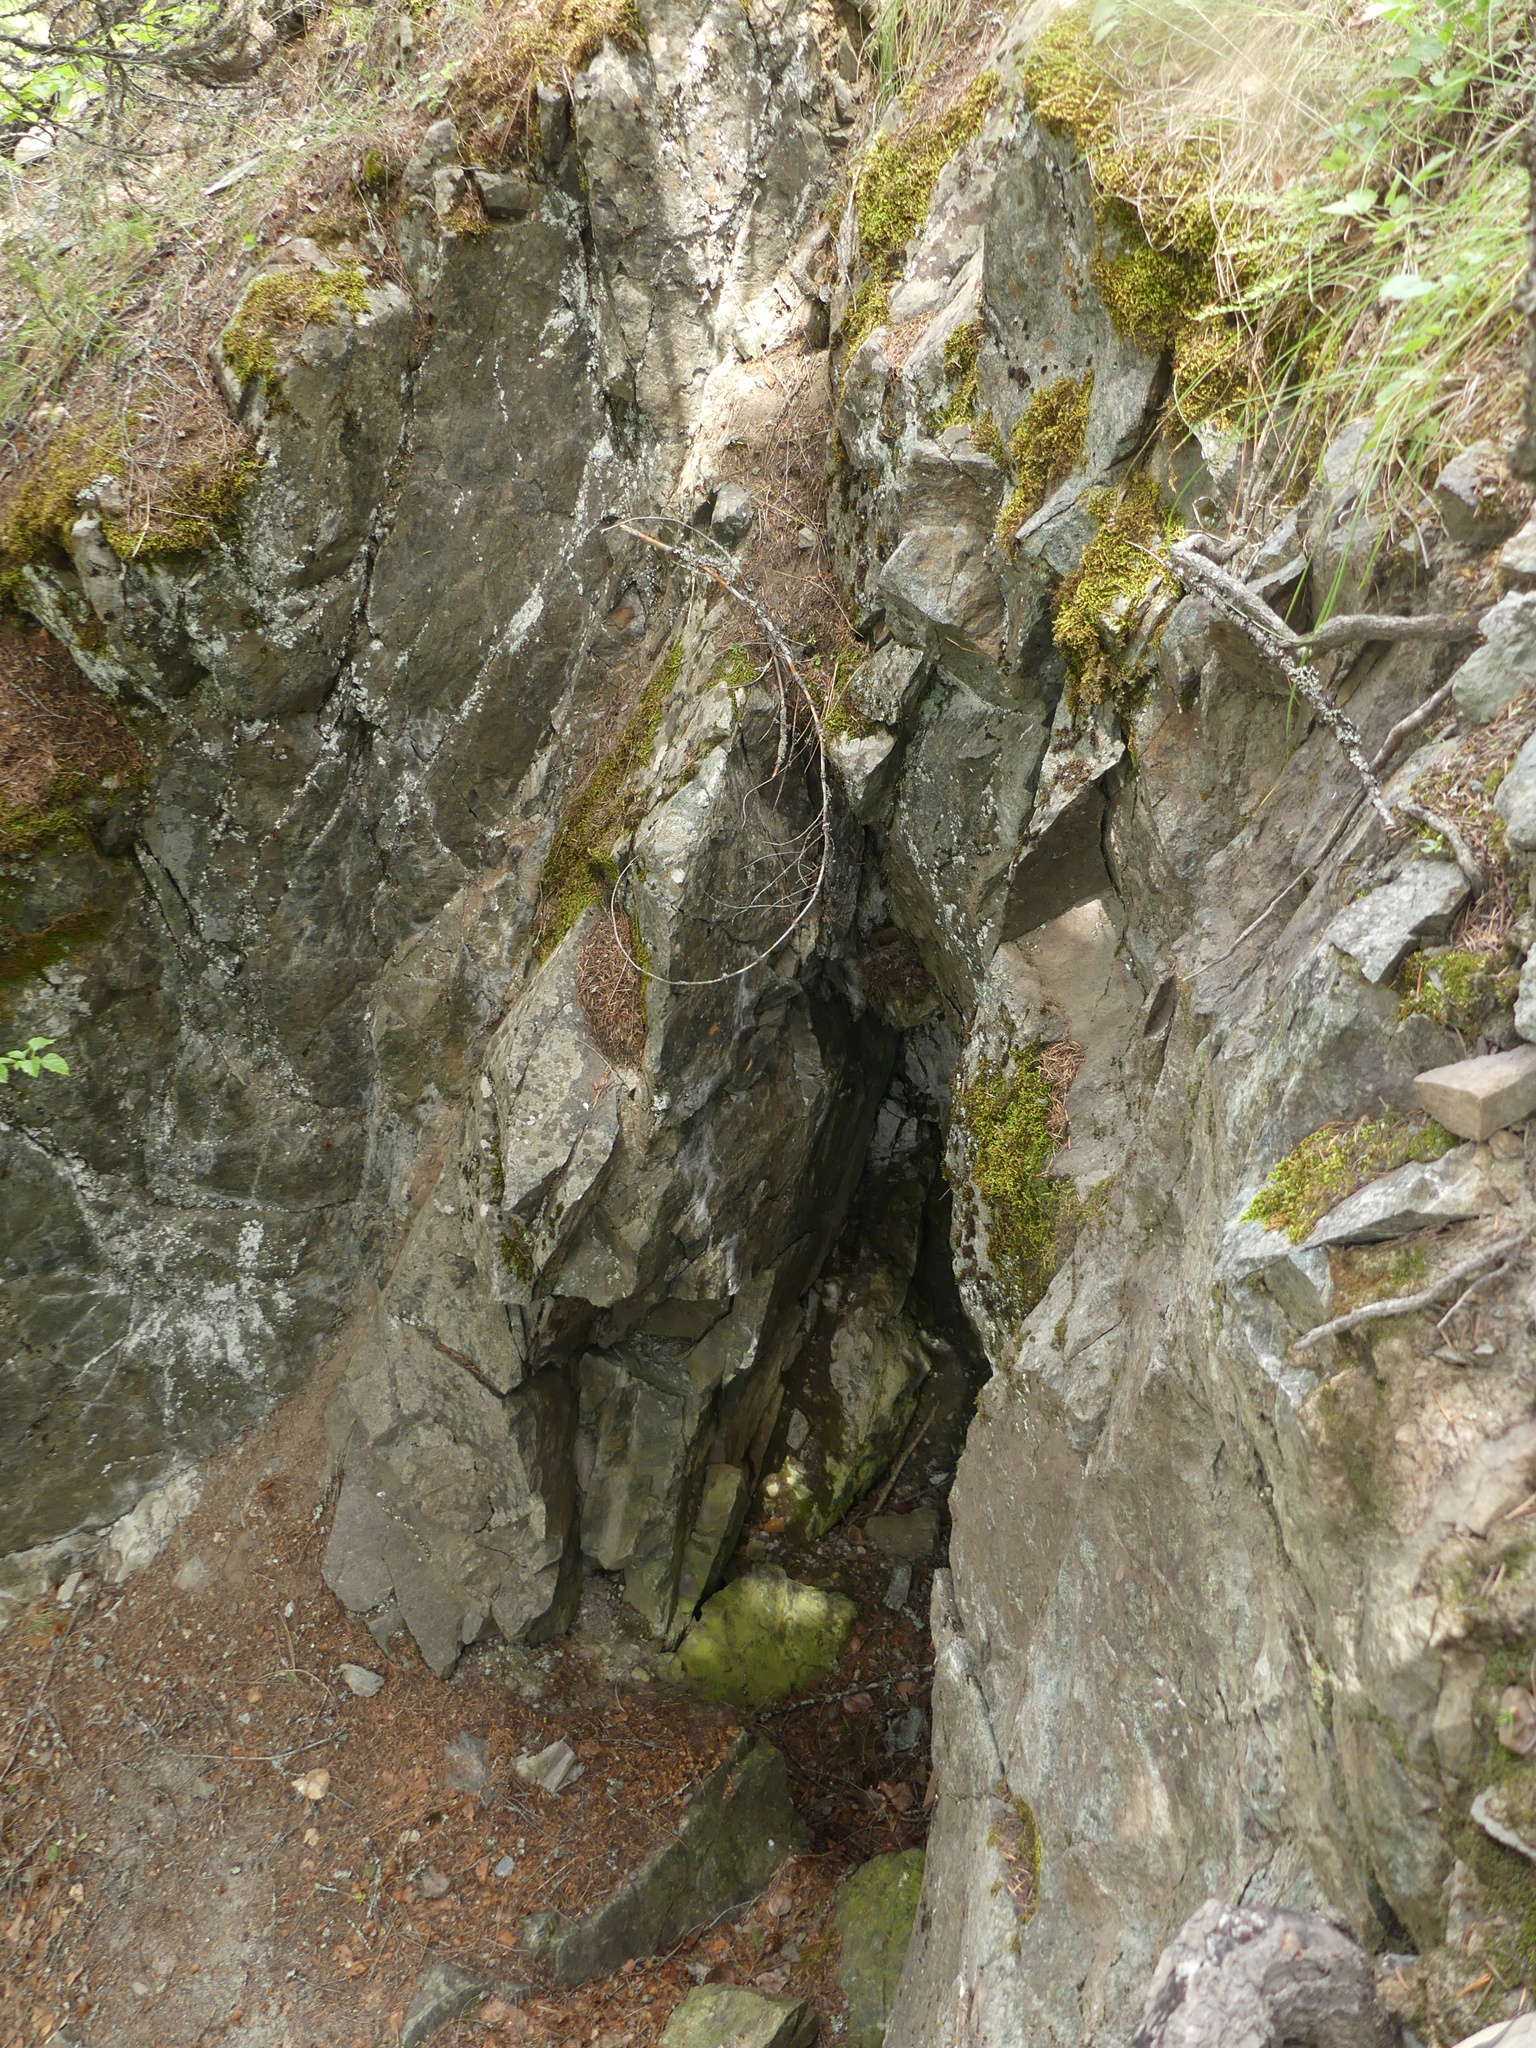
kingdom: Animalia
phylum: Chordata
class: Aves
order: Passeriformes
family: Cinclidae
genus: Cinclus
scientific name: Cinclus mexicanus
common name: American dipper
